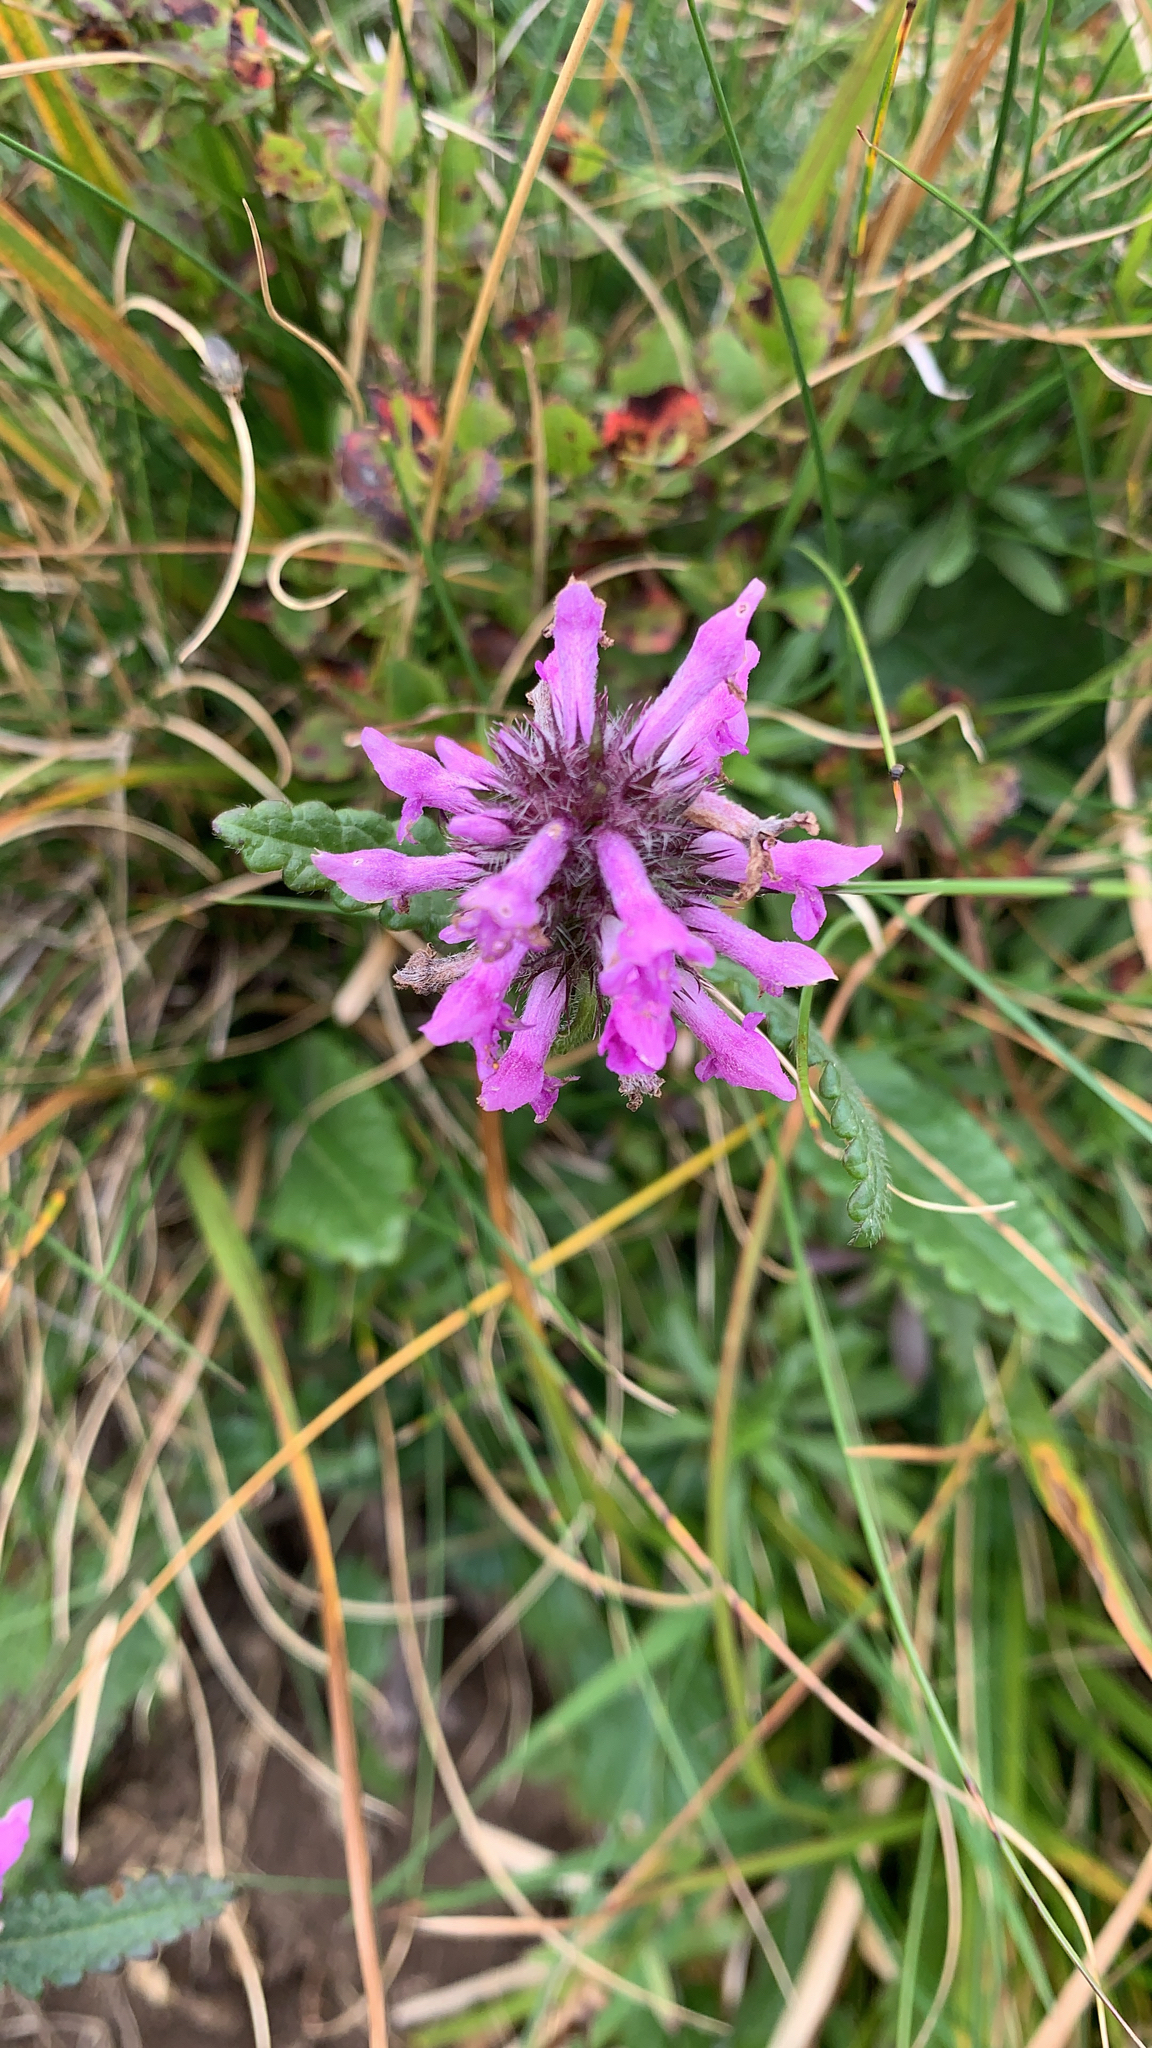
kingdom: Plantae
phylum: Tracheophyta
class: Magnoliopsida
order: Lamiales
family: Lamiaceae
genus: Betonica
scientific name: Betonica officinalis
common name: Bishop's-wort
